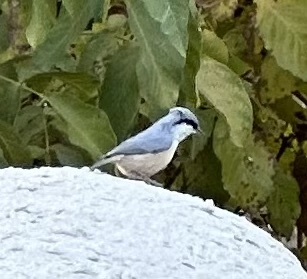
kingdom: Animalia
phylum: Chordata
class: Aves
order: Passeriformes
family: Sittidae
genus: Sitta
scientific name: Sitta neumayer
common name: Western rock nuthatch
